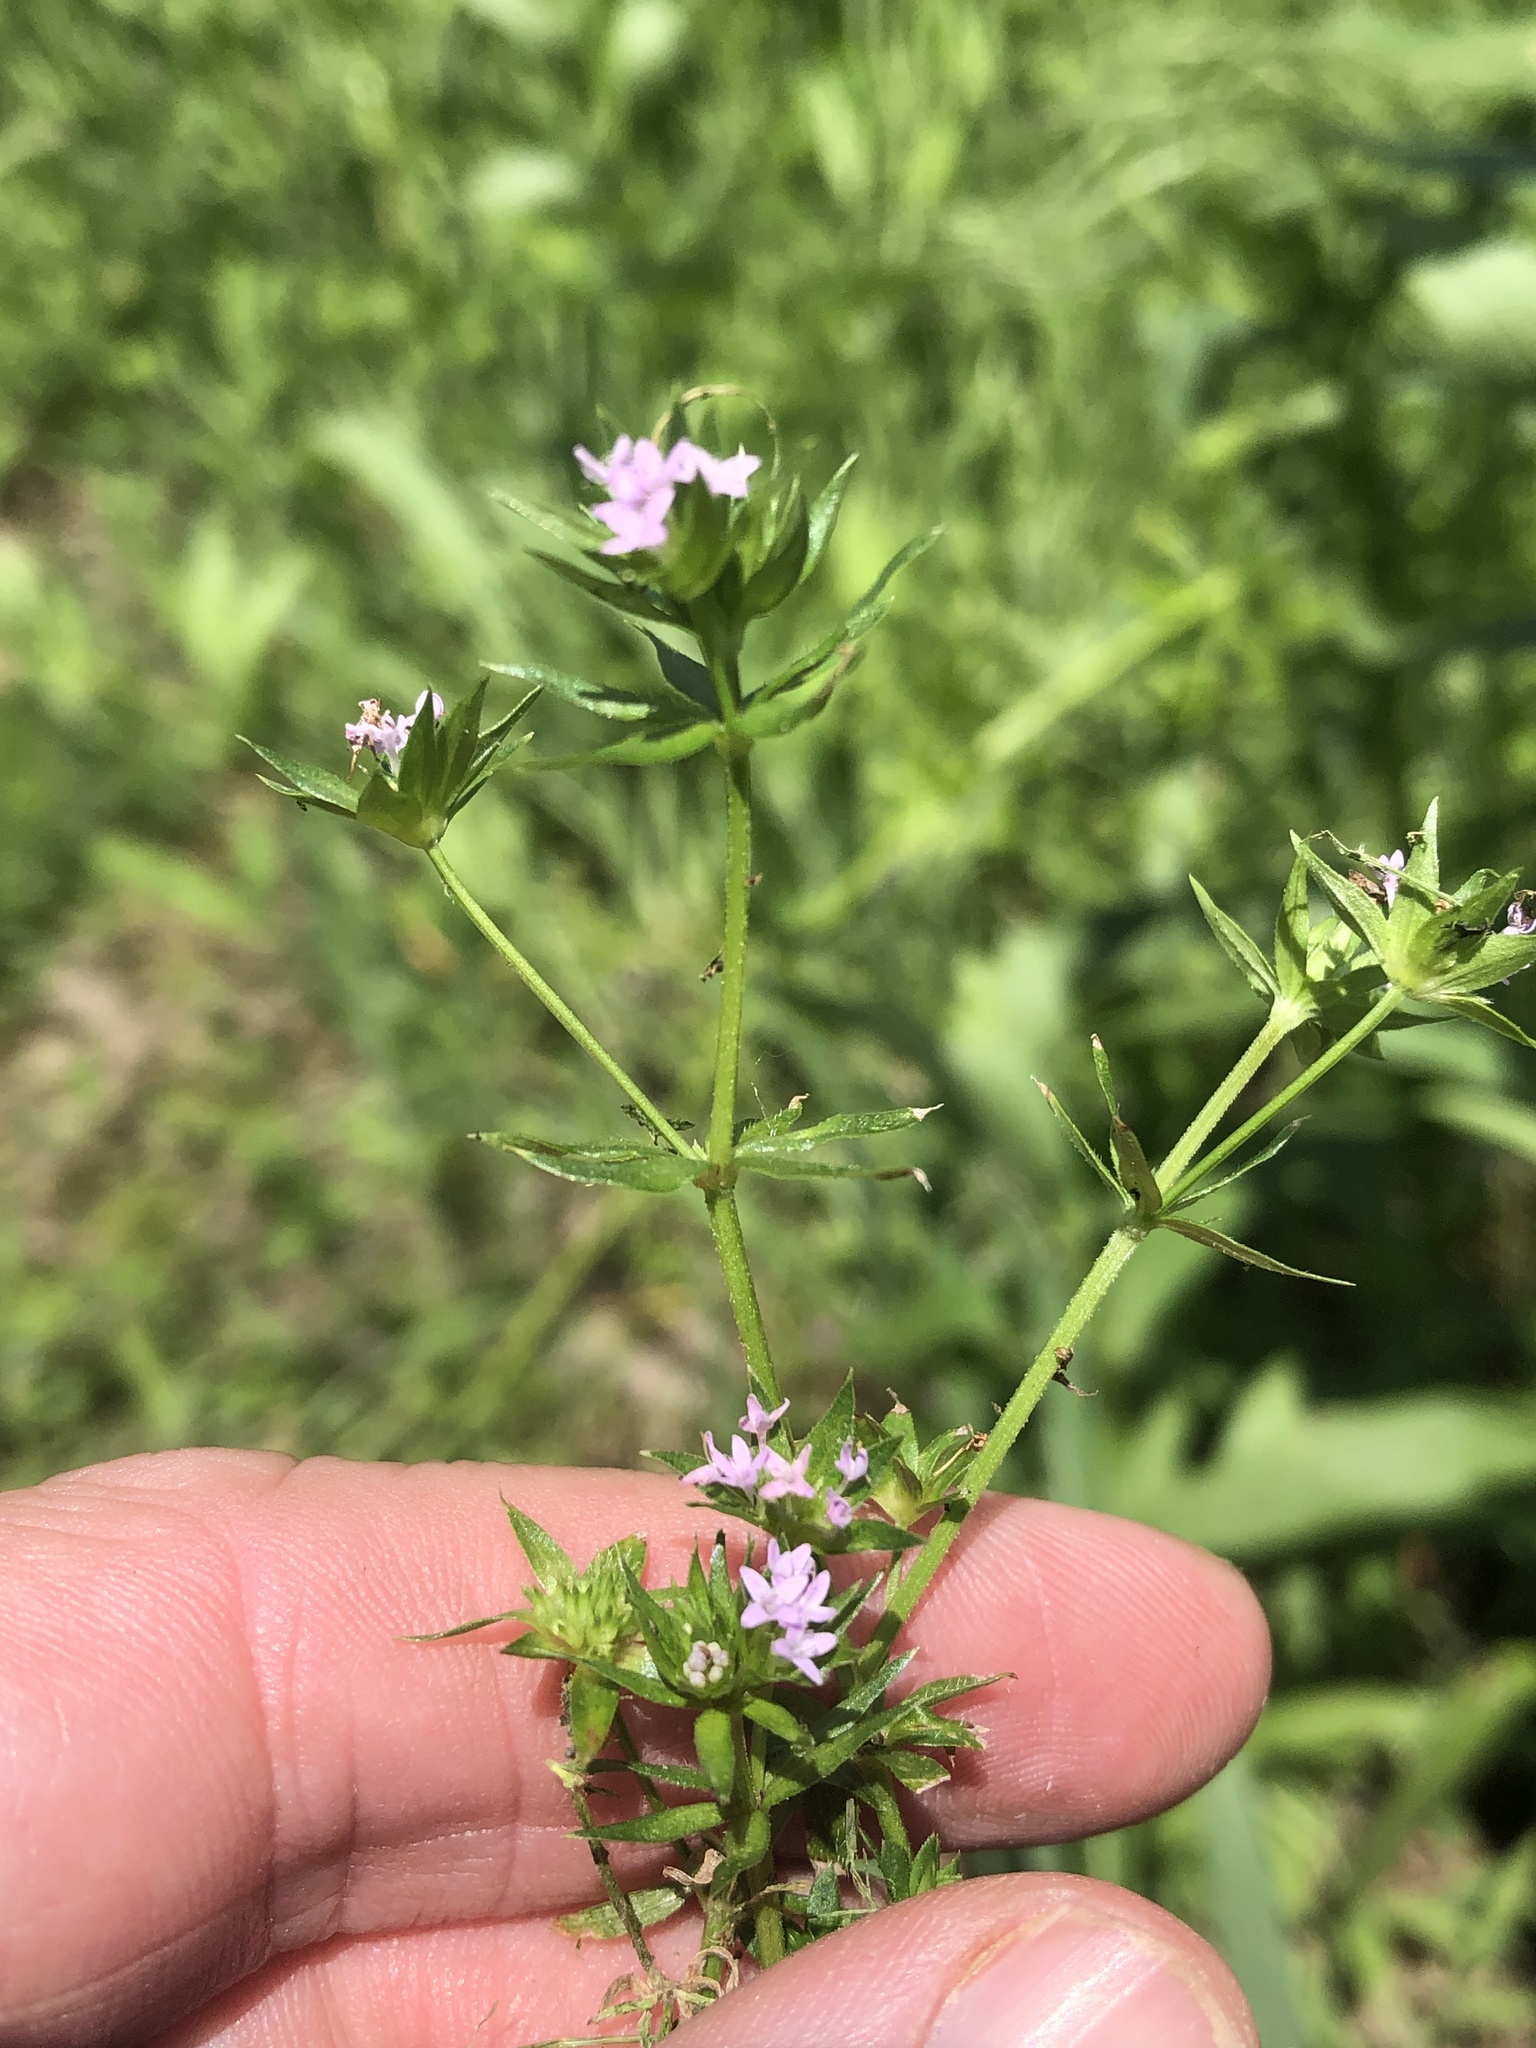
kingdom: Plantae
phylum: Tracheophyta
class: Magnoliopsida
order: Gentianales
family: Rubiaceae
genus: Sherardia
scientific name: Sherardia arvensis
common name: Field madder
